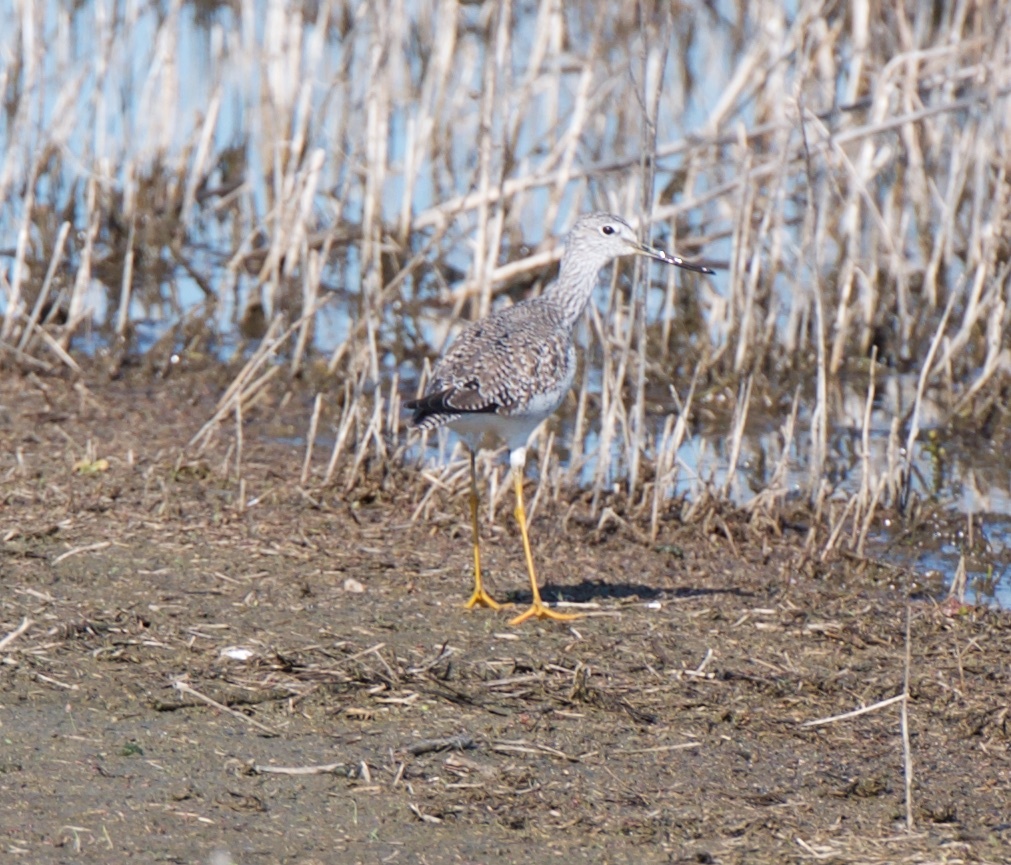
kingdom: Animalia
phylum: Chordata
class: Aves
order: Charadriiformes
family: Scolopacidae
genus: Tringa
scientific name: Tringa melanoleuca
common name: Greater yellowlegs
